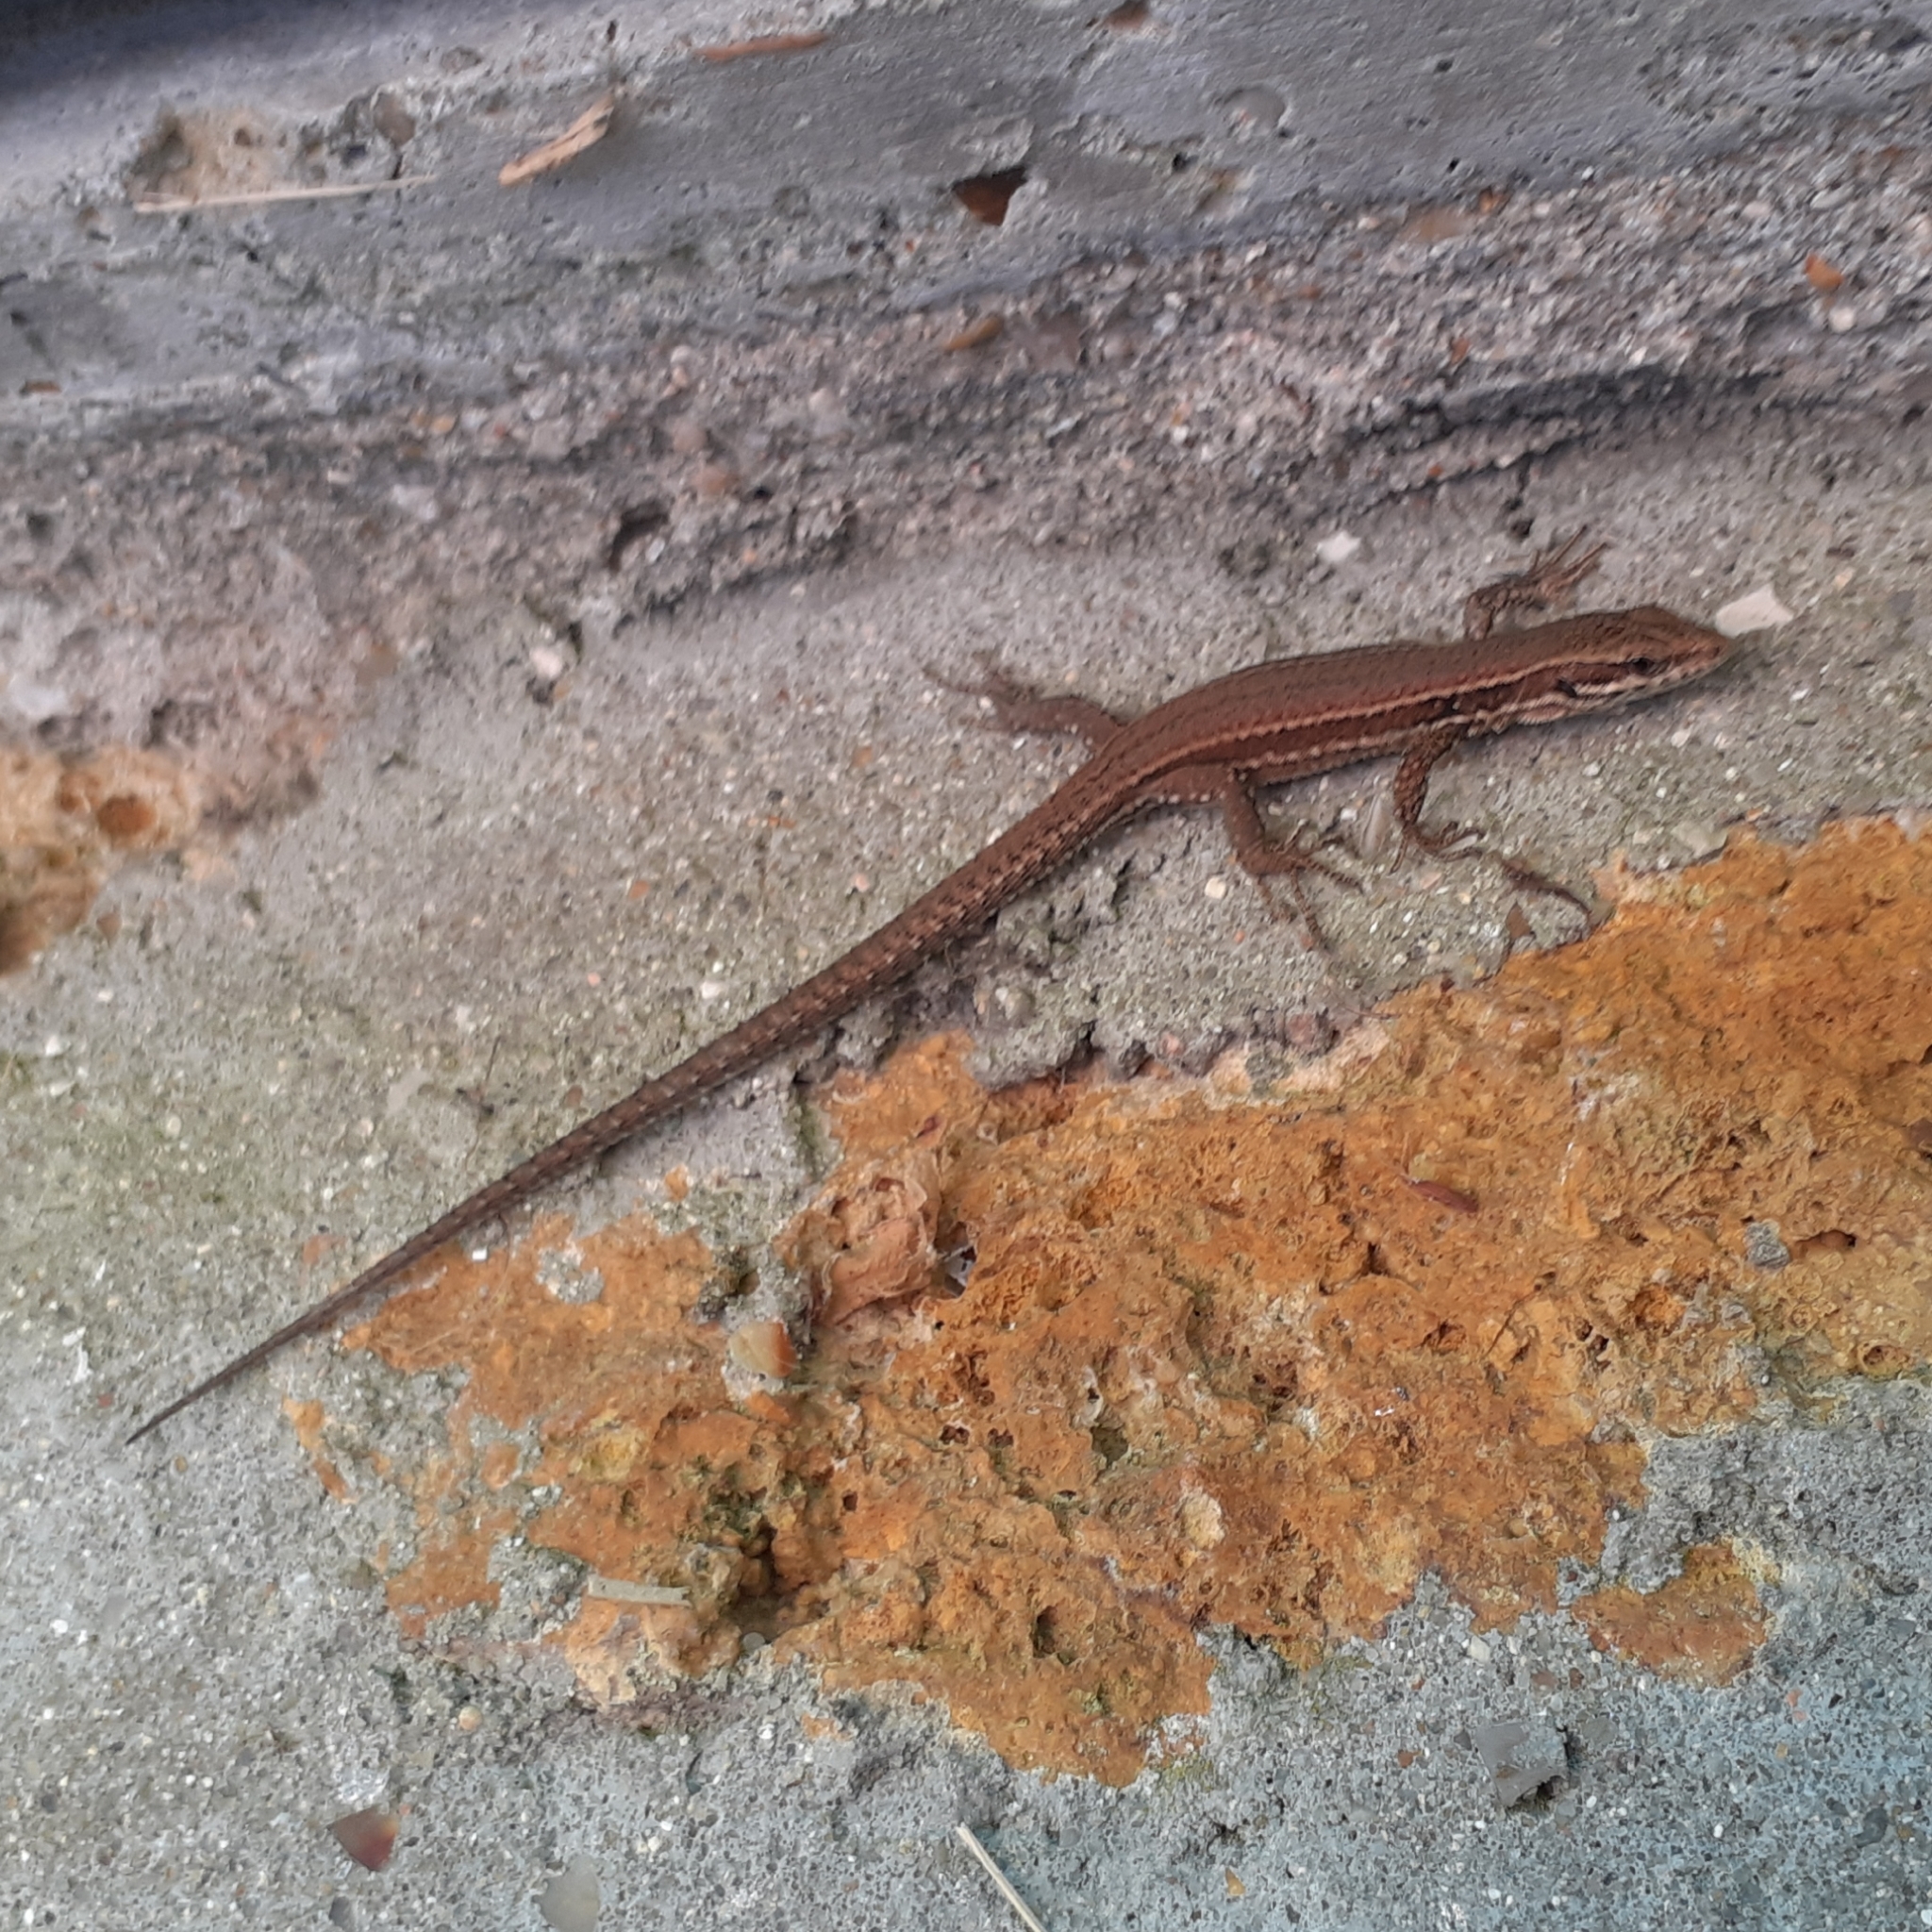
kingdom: Animalia
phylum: Chordata
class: Squamata
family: Lacertidae
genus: Podarcis
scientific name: Podarcis muralis
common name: Common wall lizard
